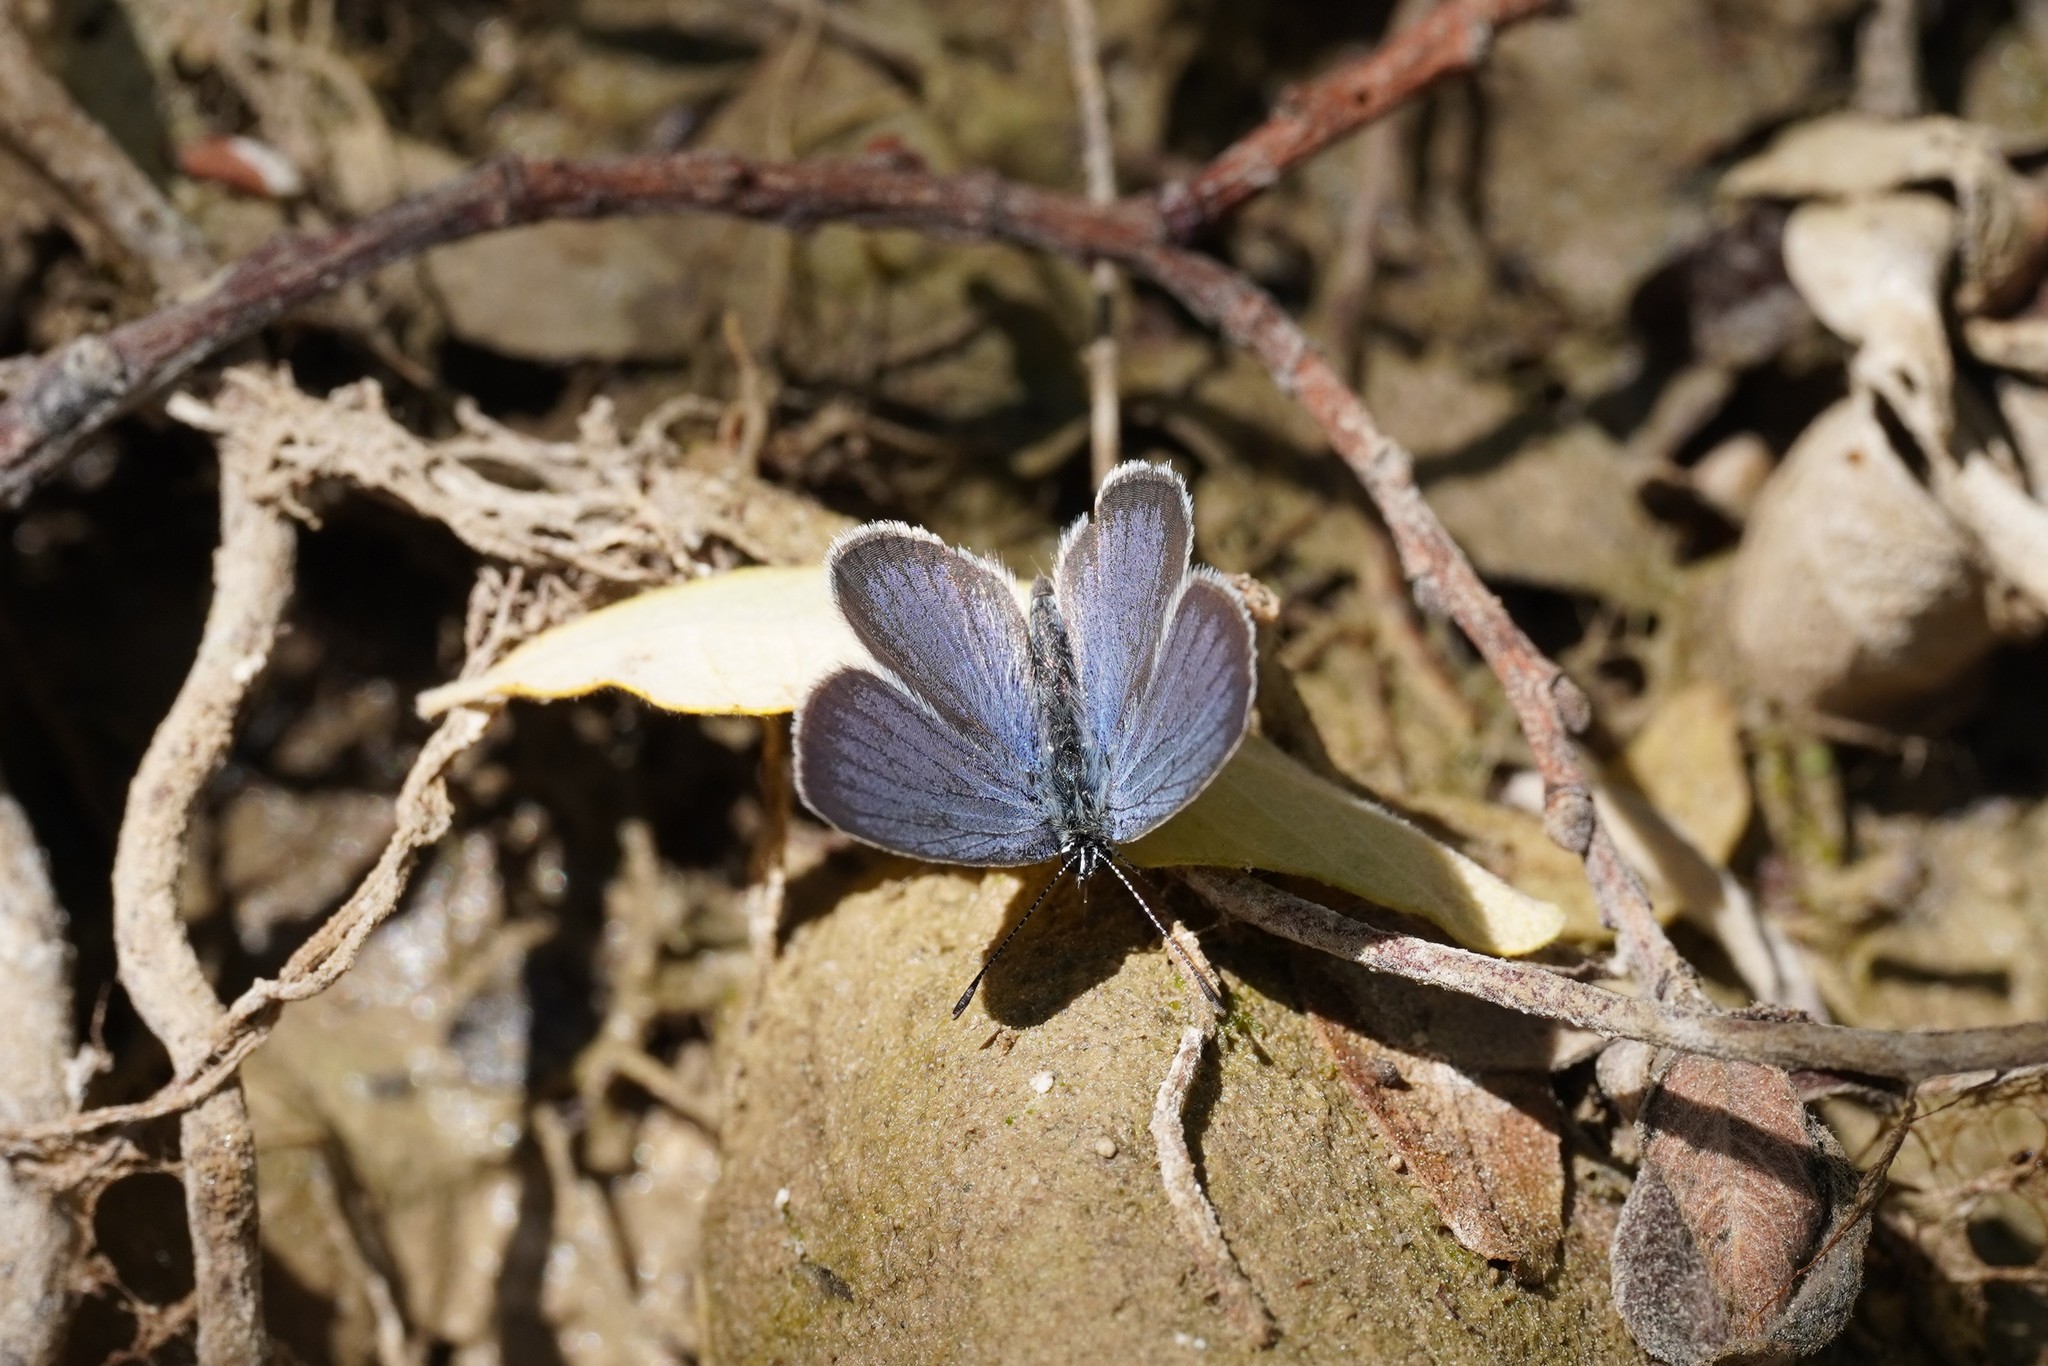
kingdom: Animalia
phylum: Arthropoda
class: Insecta
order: Lepidoptera
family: Lycaenidae
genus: Cupido
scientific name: Cupido lorquinii
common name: Lorquin’s blue
